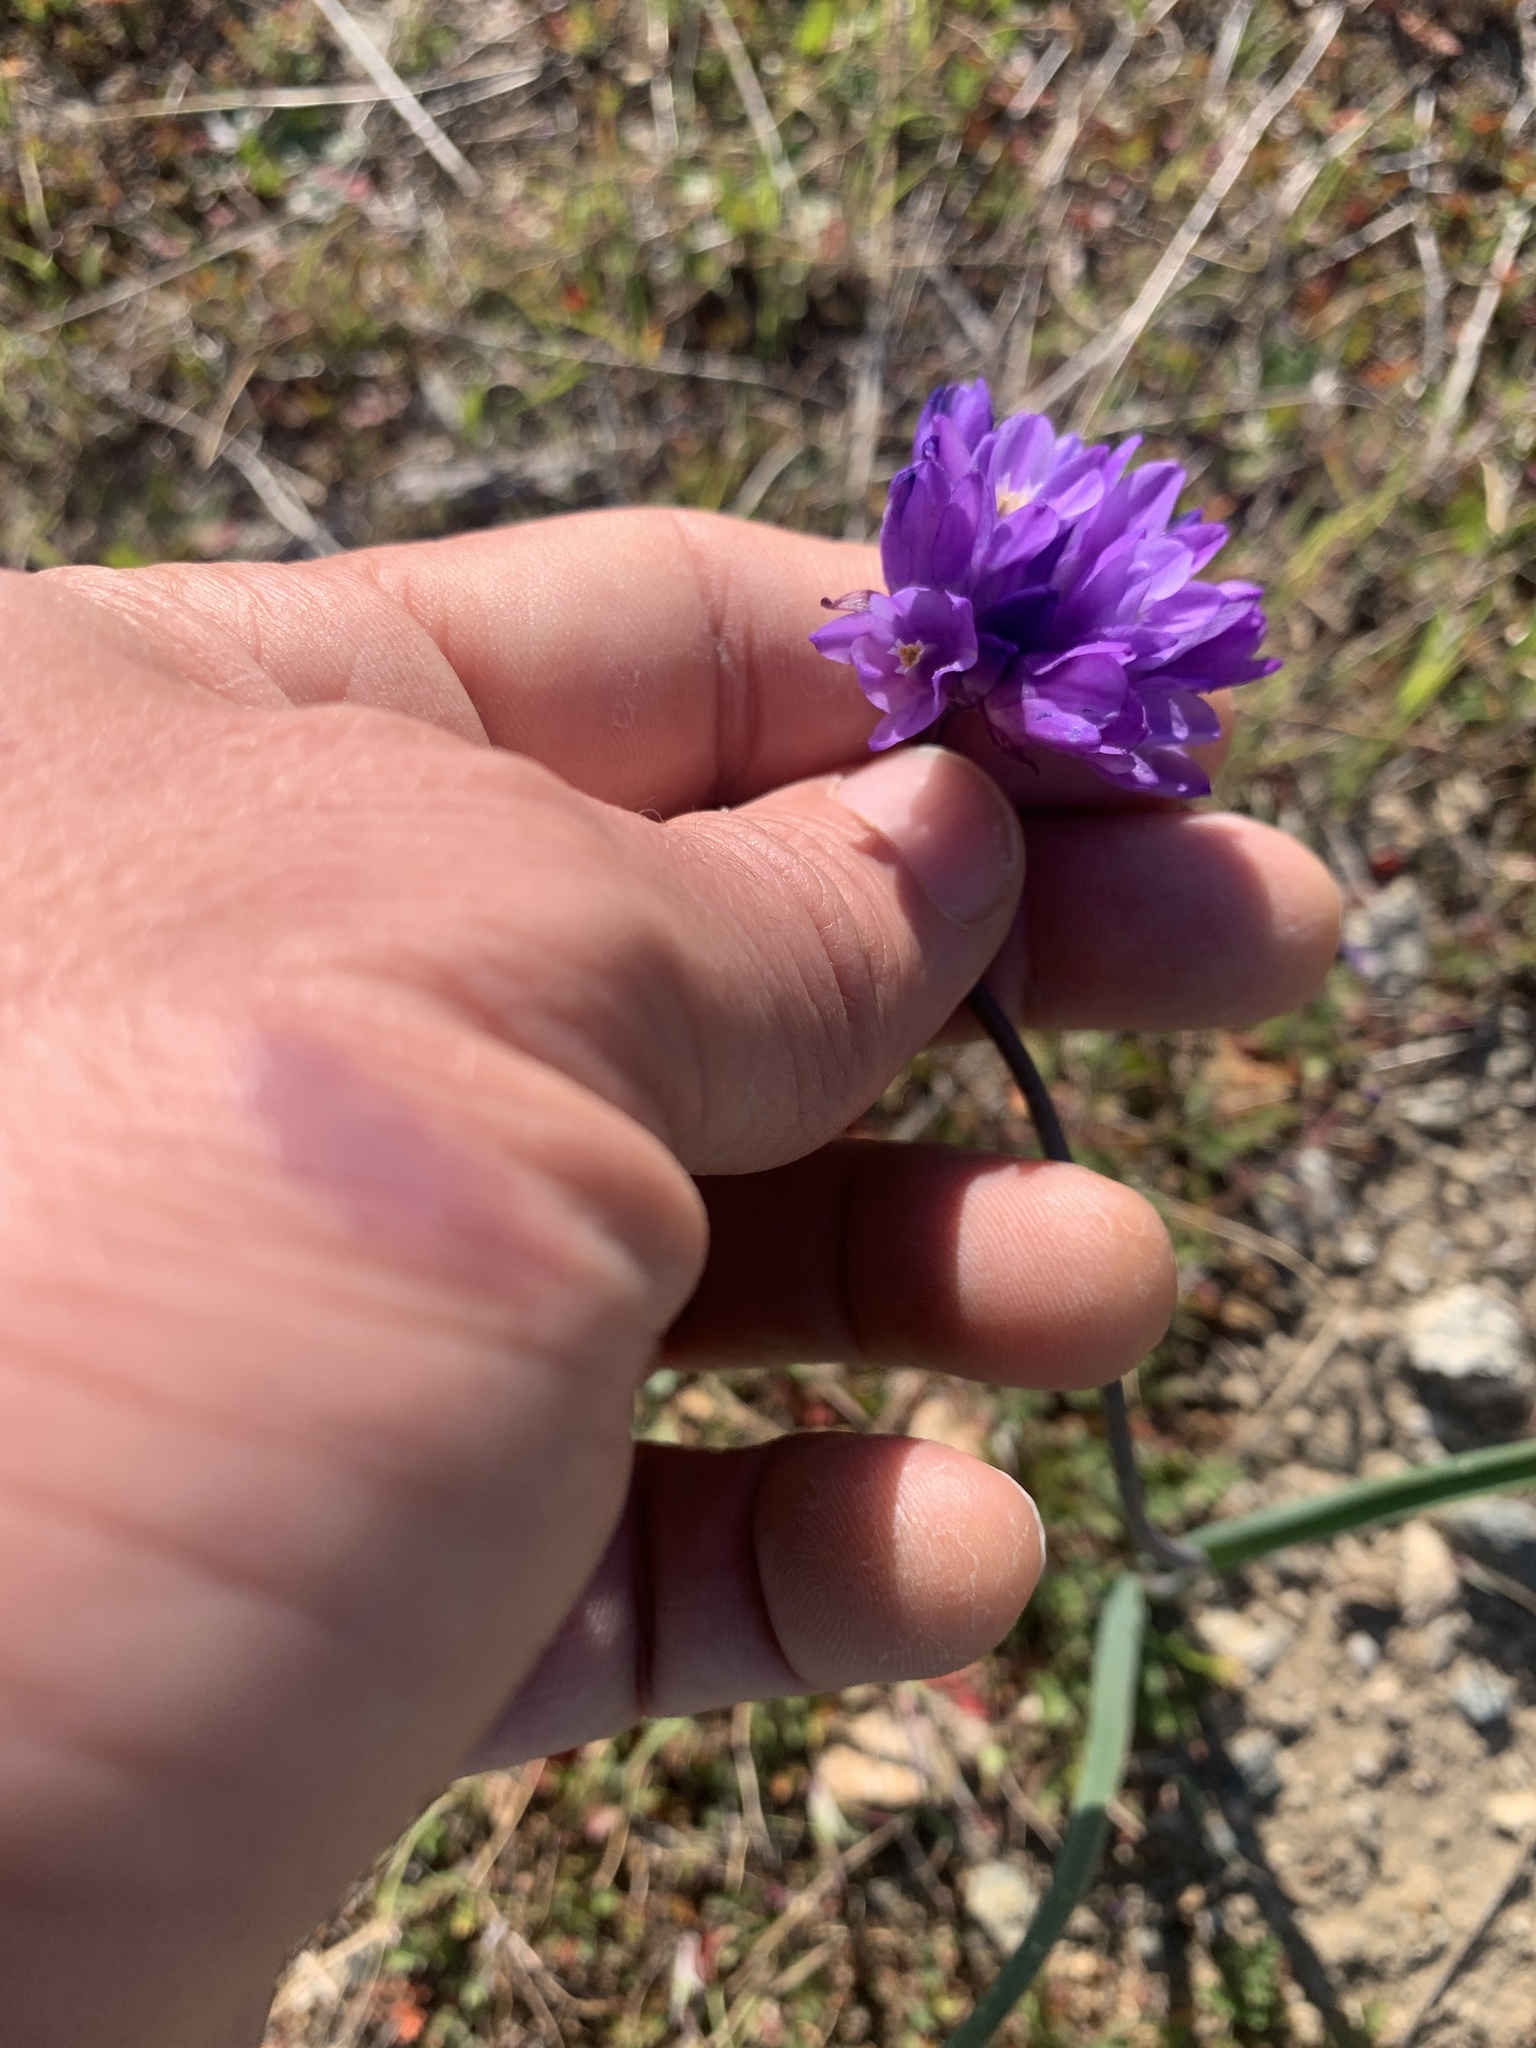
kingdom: Plantae
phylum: Tracheophyta
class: Liliopsida
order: Asparagales
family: Asparagaceae
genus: Dipterostemon
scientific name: Dipterostemon capitatus
